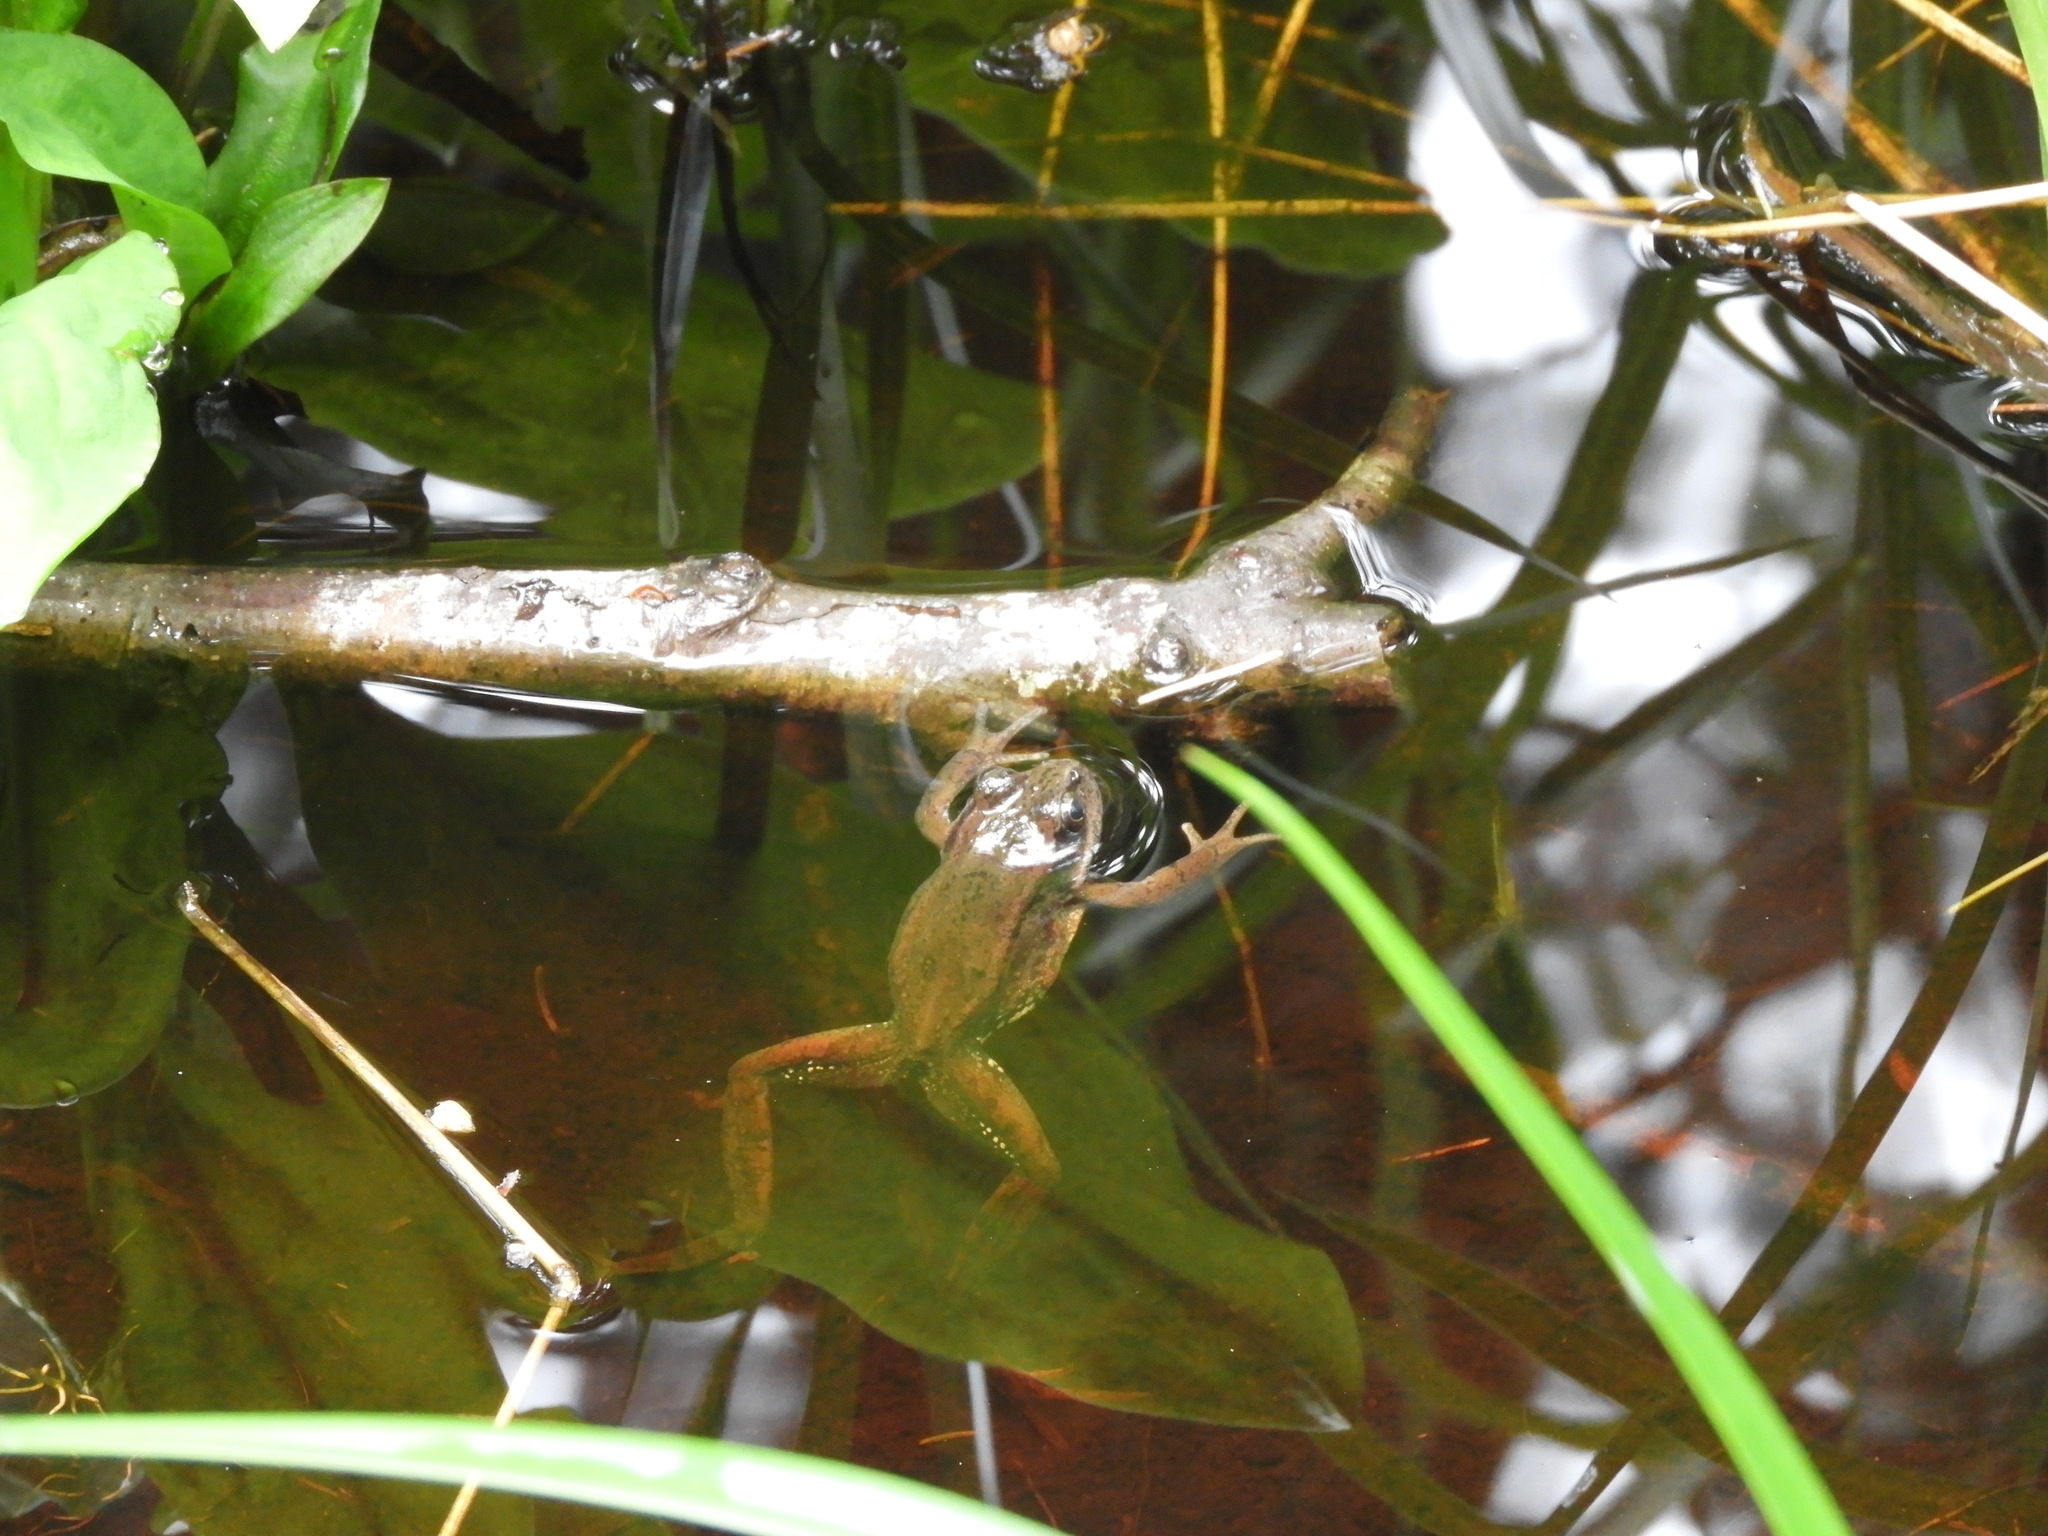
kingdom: Animalia
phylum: Chordata
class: Amphibia
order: Anura
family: Ranidae
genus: Rana
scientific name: Rana aurora
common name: Red-legged frog
